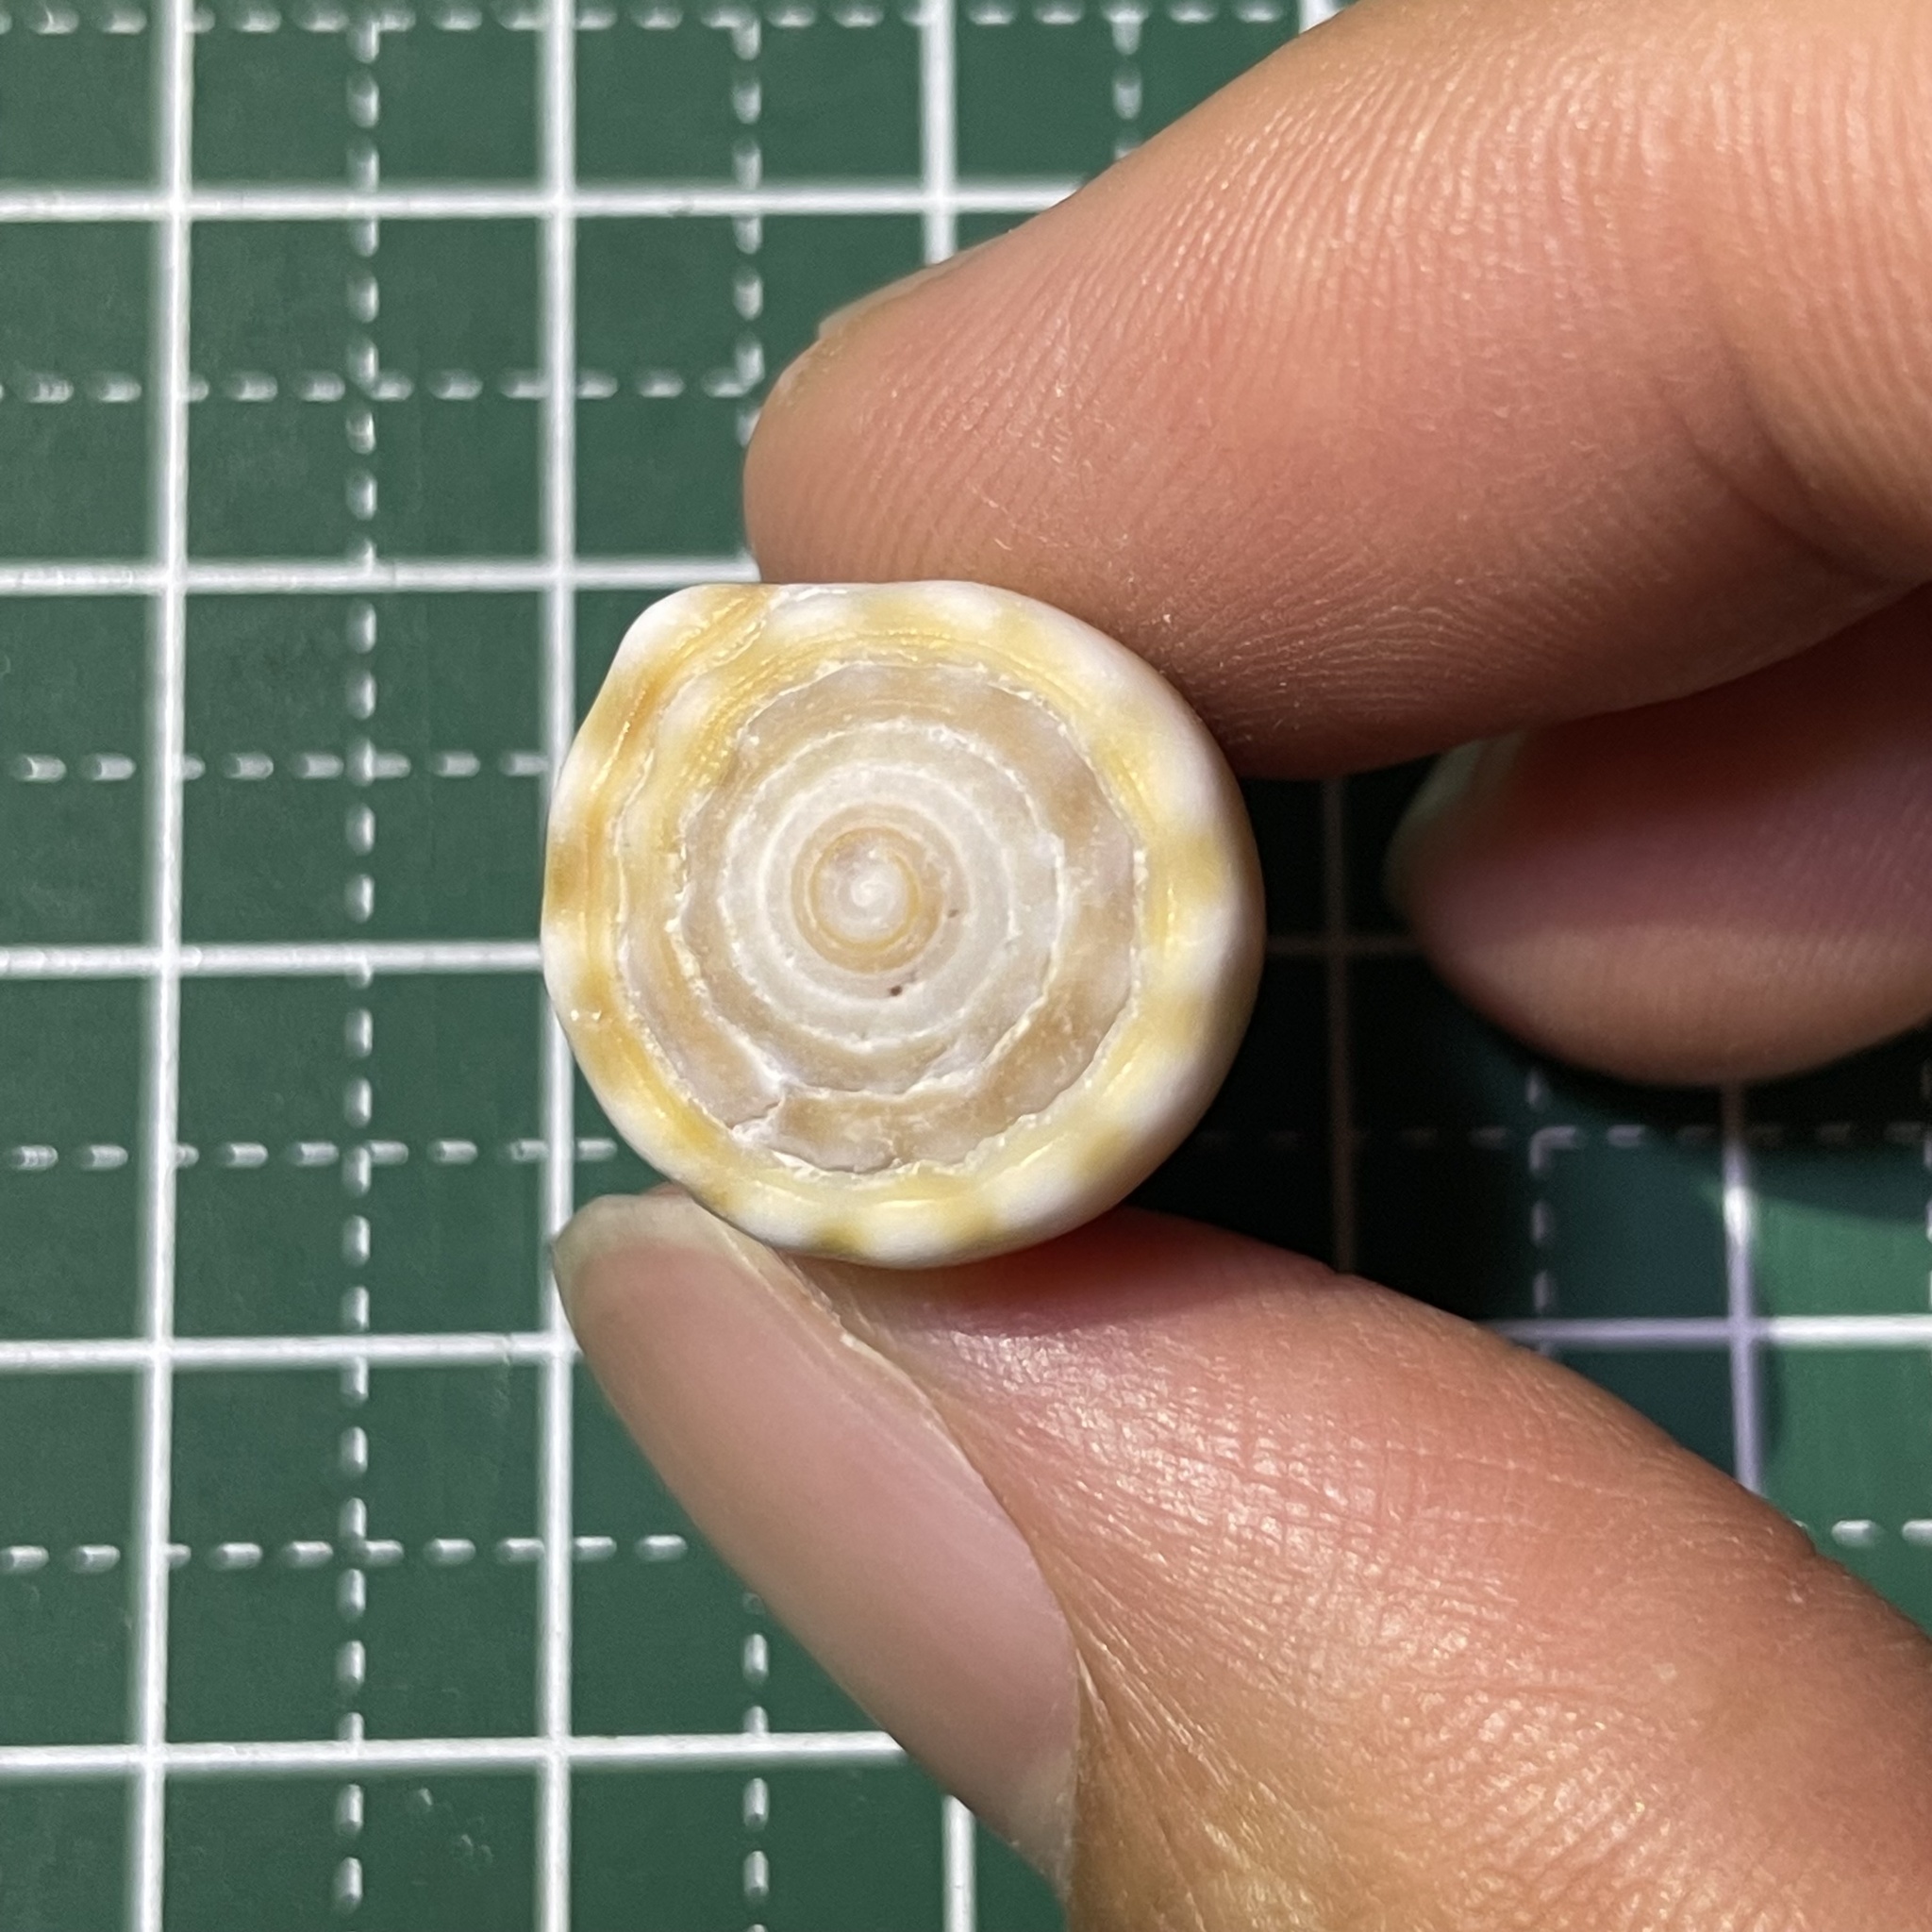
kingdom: Animalia
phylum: Mollusca
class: Gastropoda
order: Neogastropoda
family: Conidae
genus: Conus
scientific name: Conus sanguinolentus
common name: Blood-stained cone
